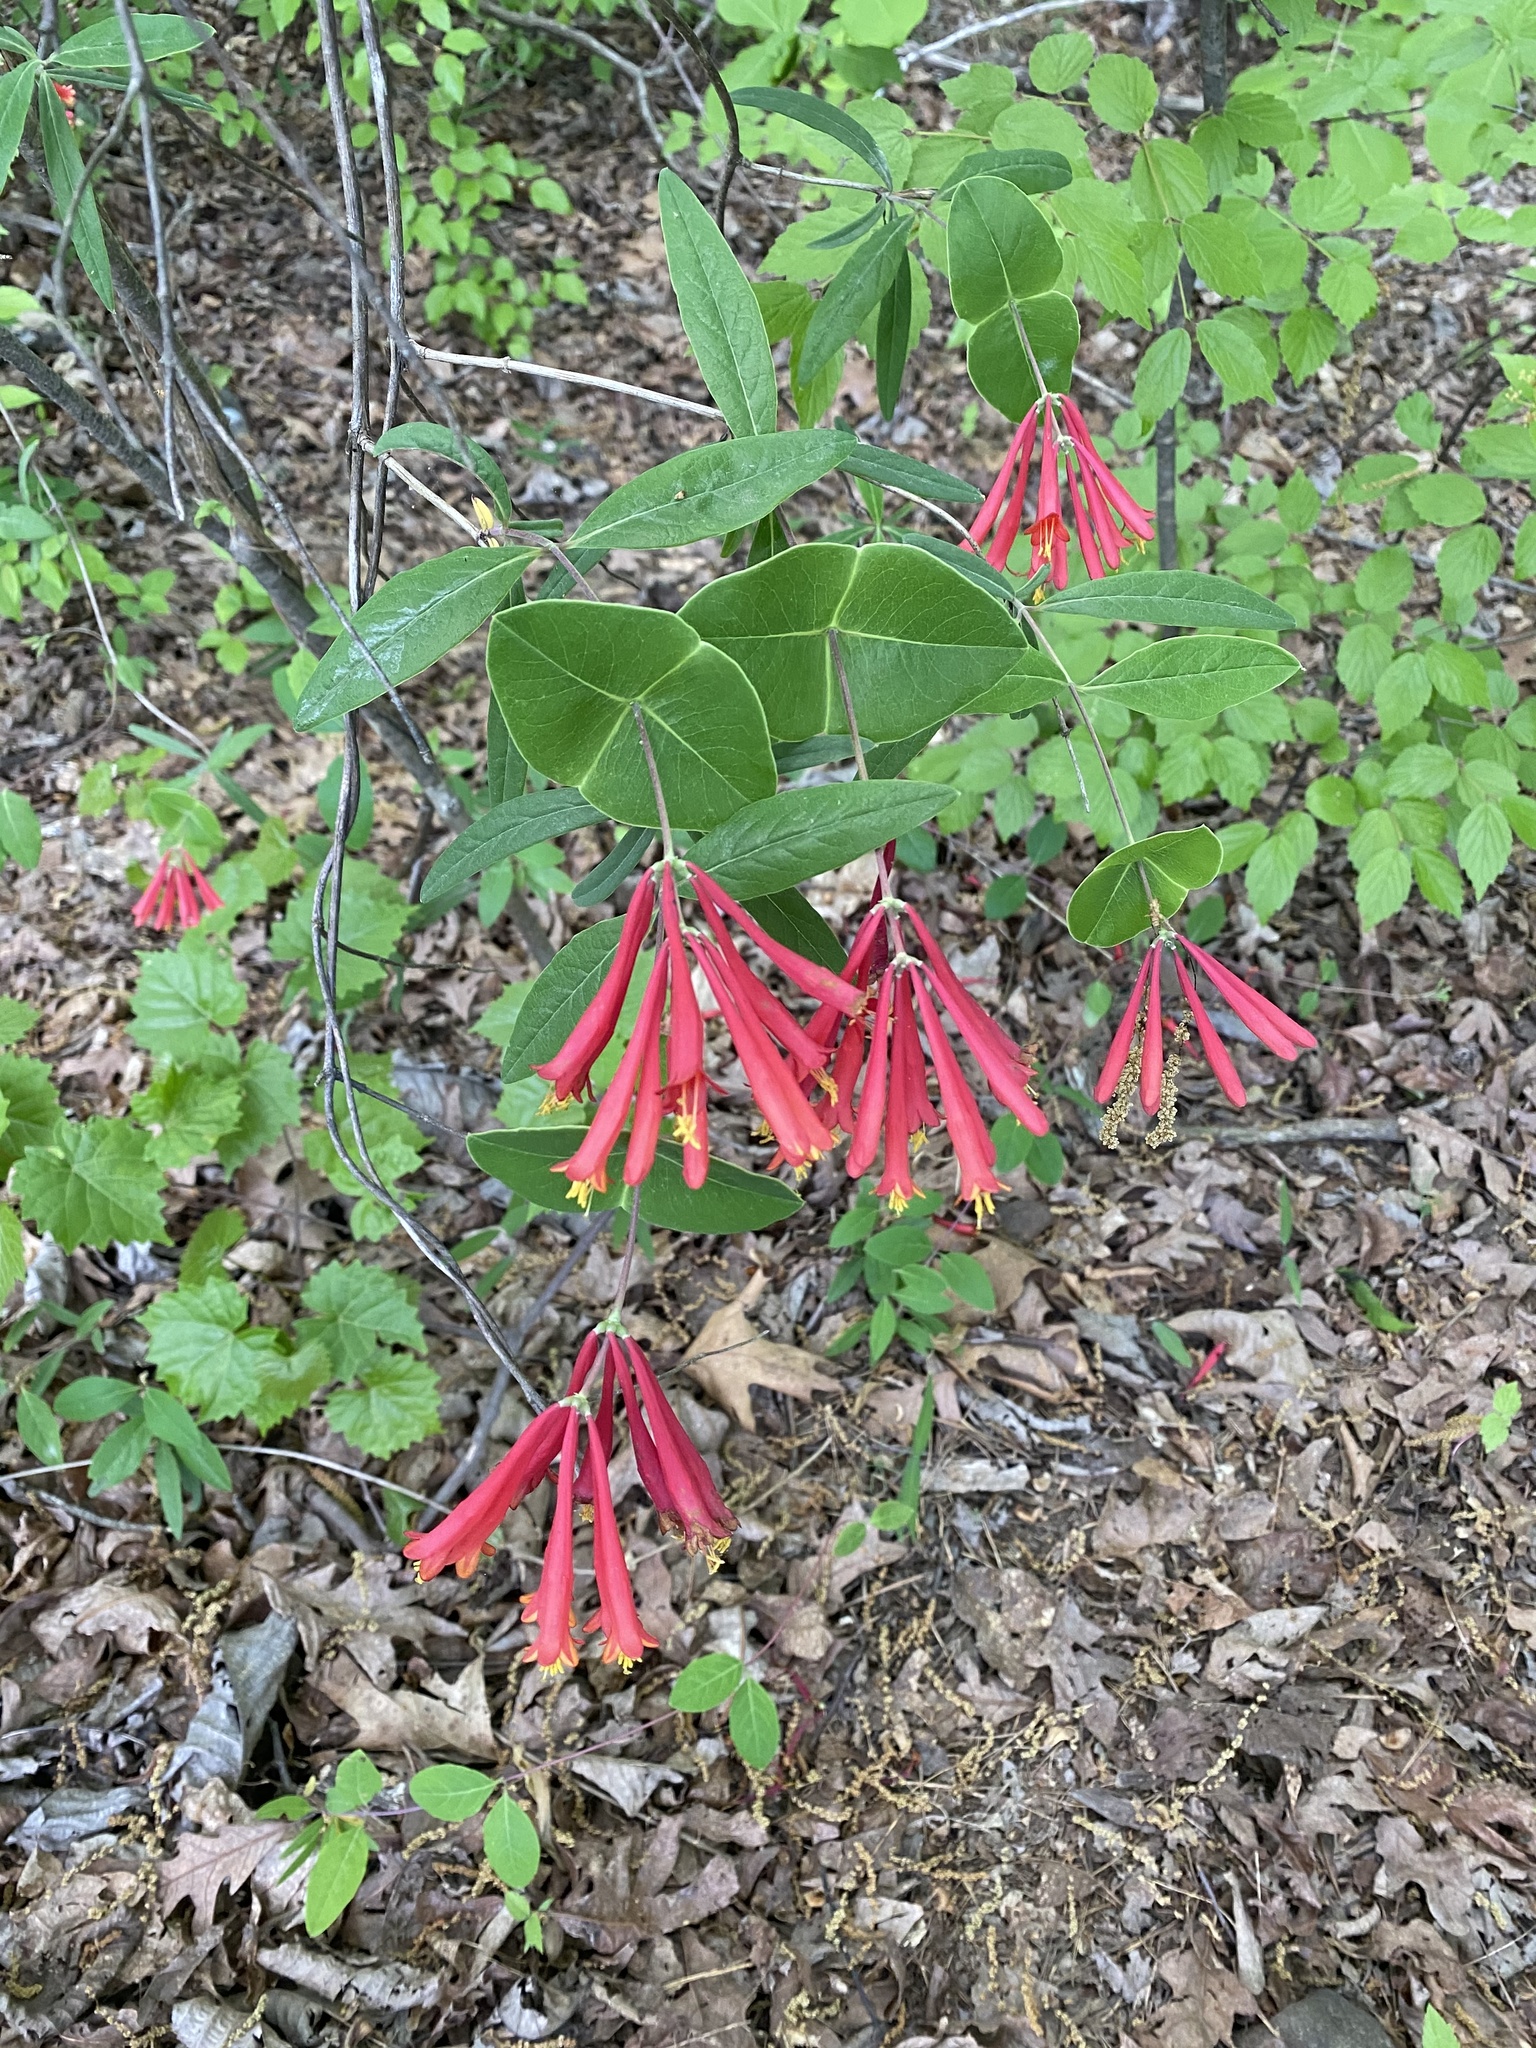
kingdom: Plantae
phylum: Tracheophyta
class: Magnoliopsida
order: Dipsacales
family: Caprifoliaceae
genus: Lonicera
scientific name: Lonicera sempervirens
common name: Coral honeysuckle
